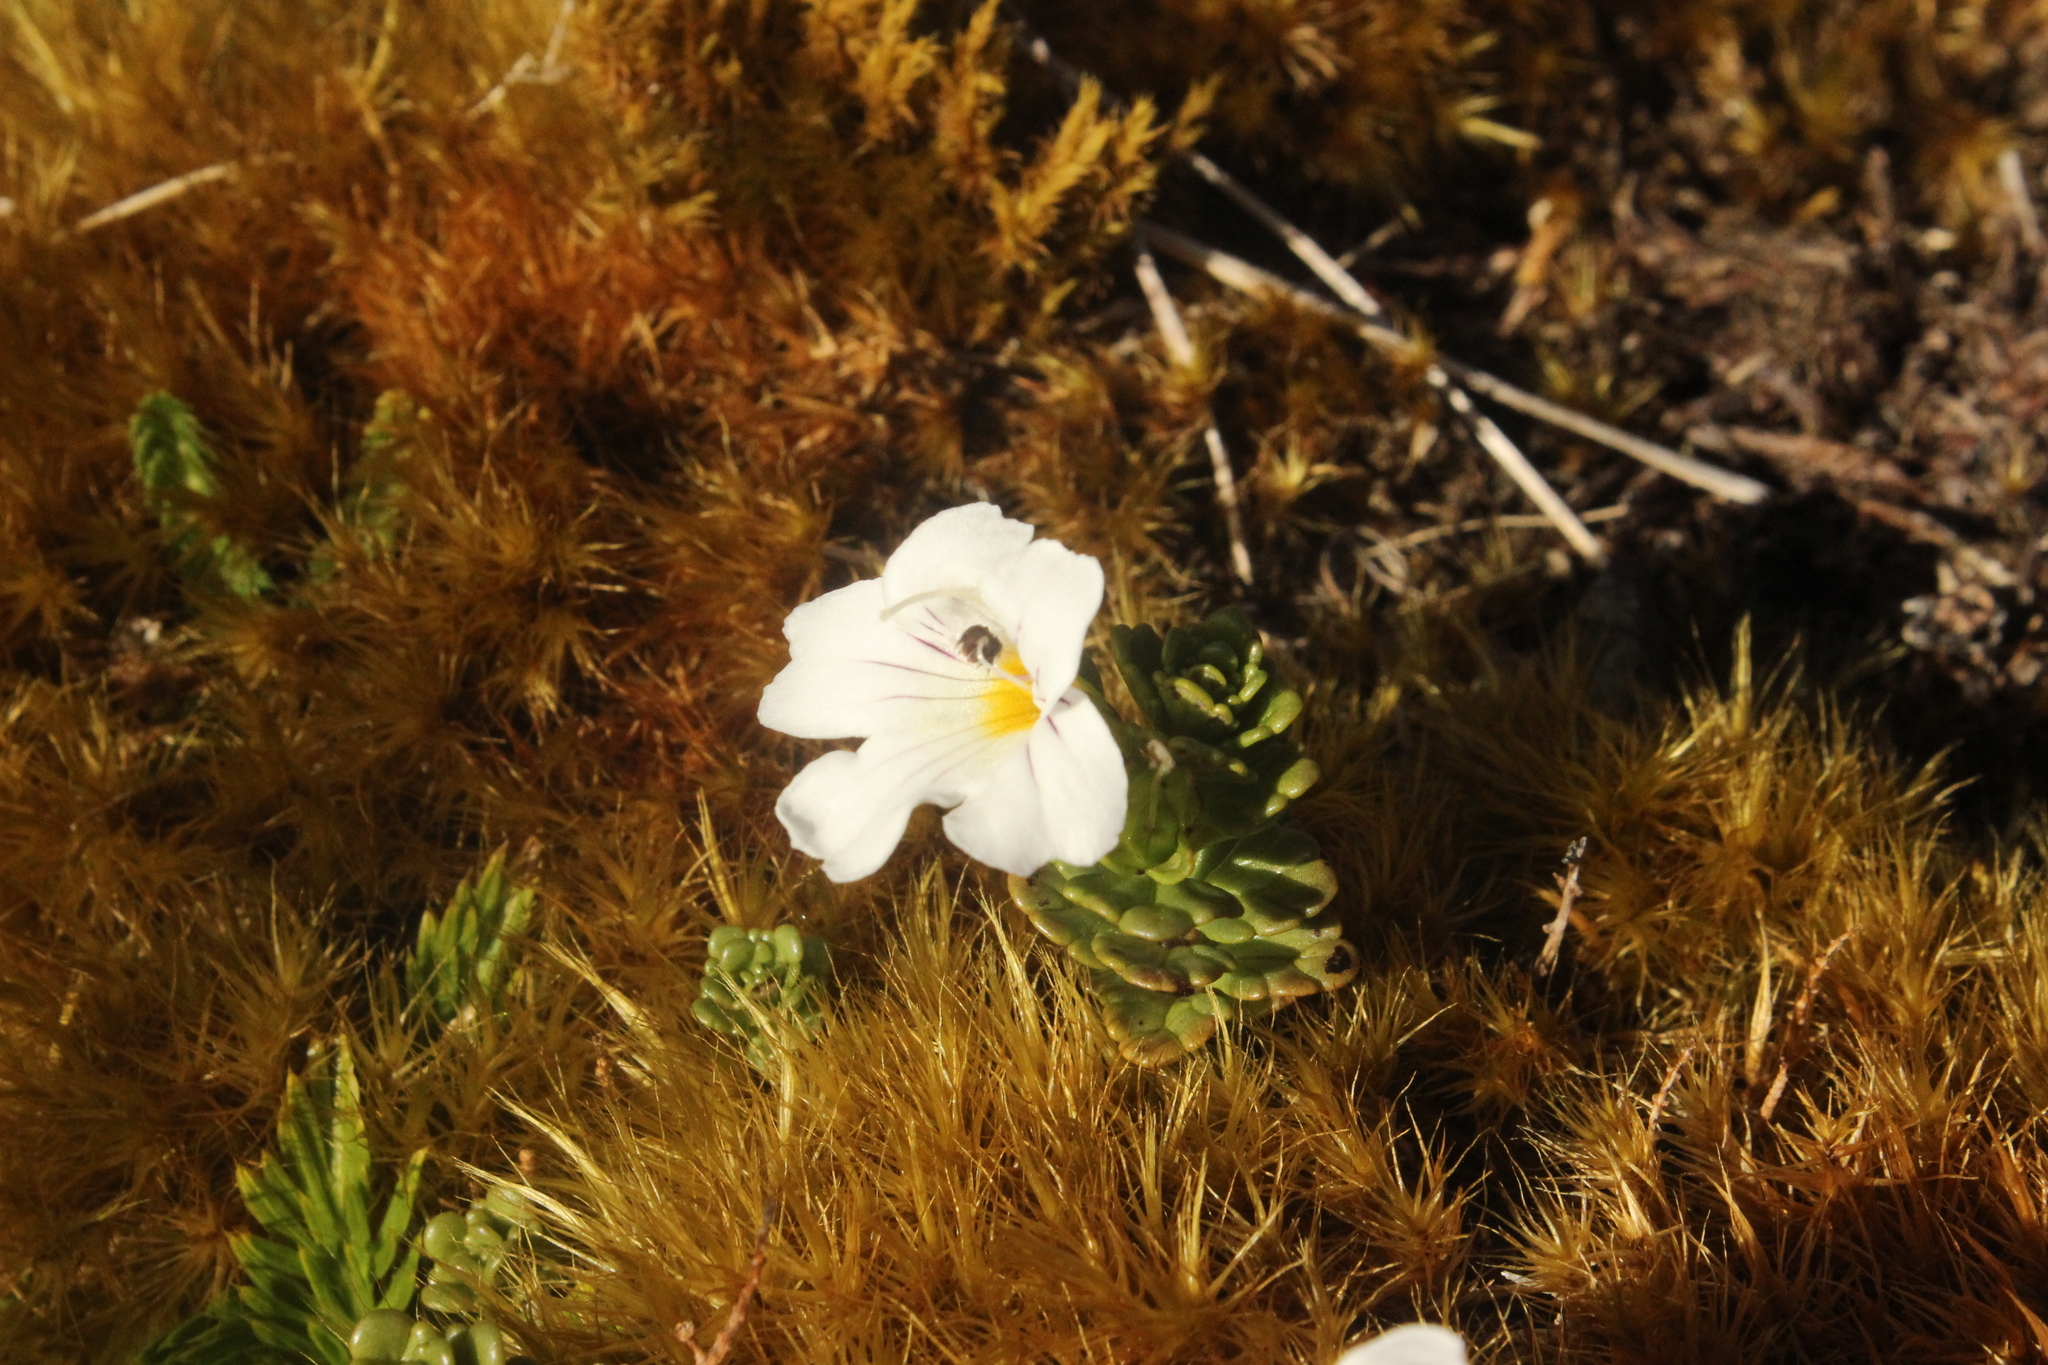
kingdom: Plantae
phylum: Tracheophyta
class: Magnoliopsida
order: Lamiales
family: Orobanchaceae
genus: Euphrasia
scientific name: Euphrasia drucei
